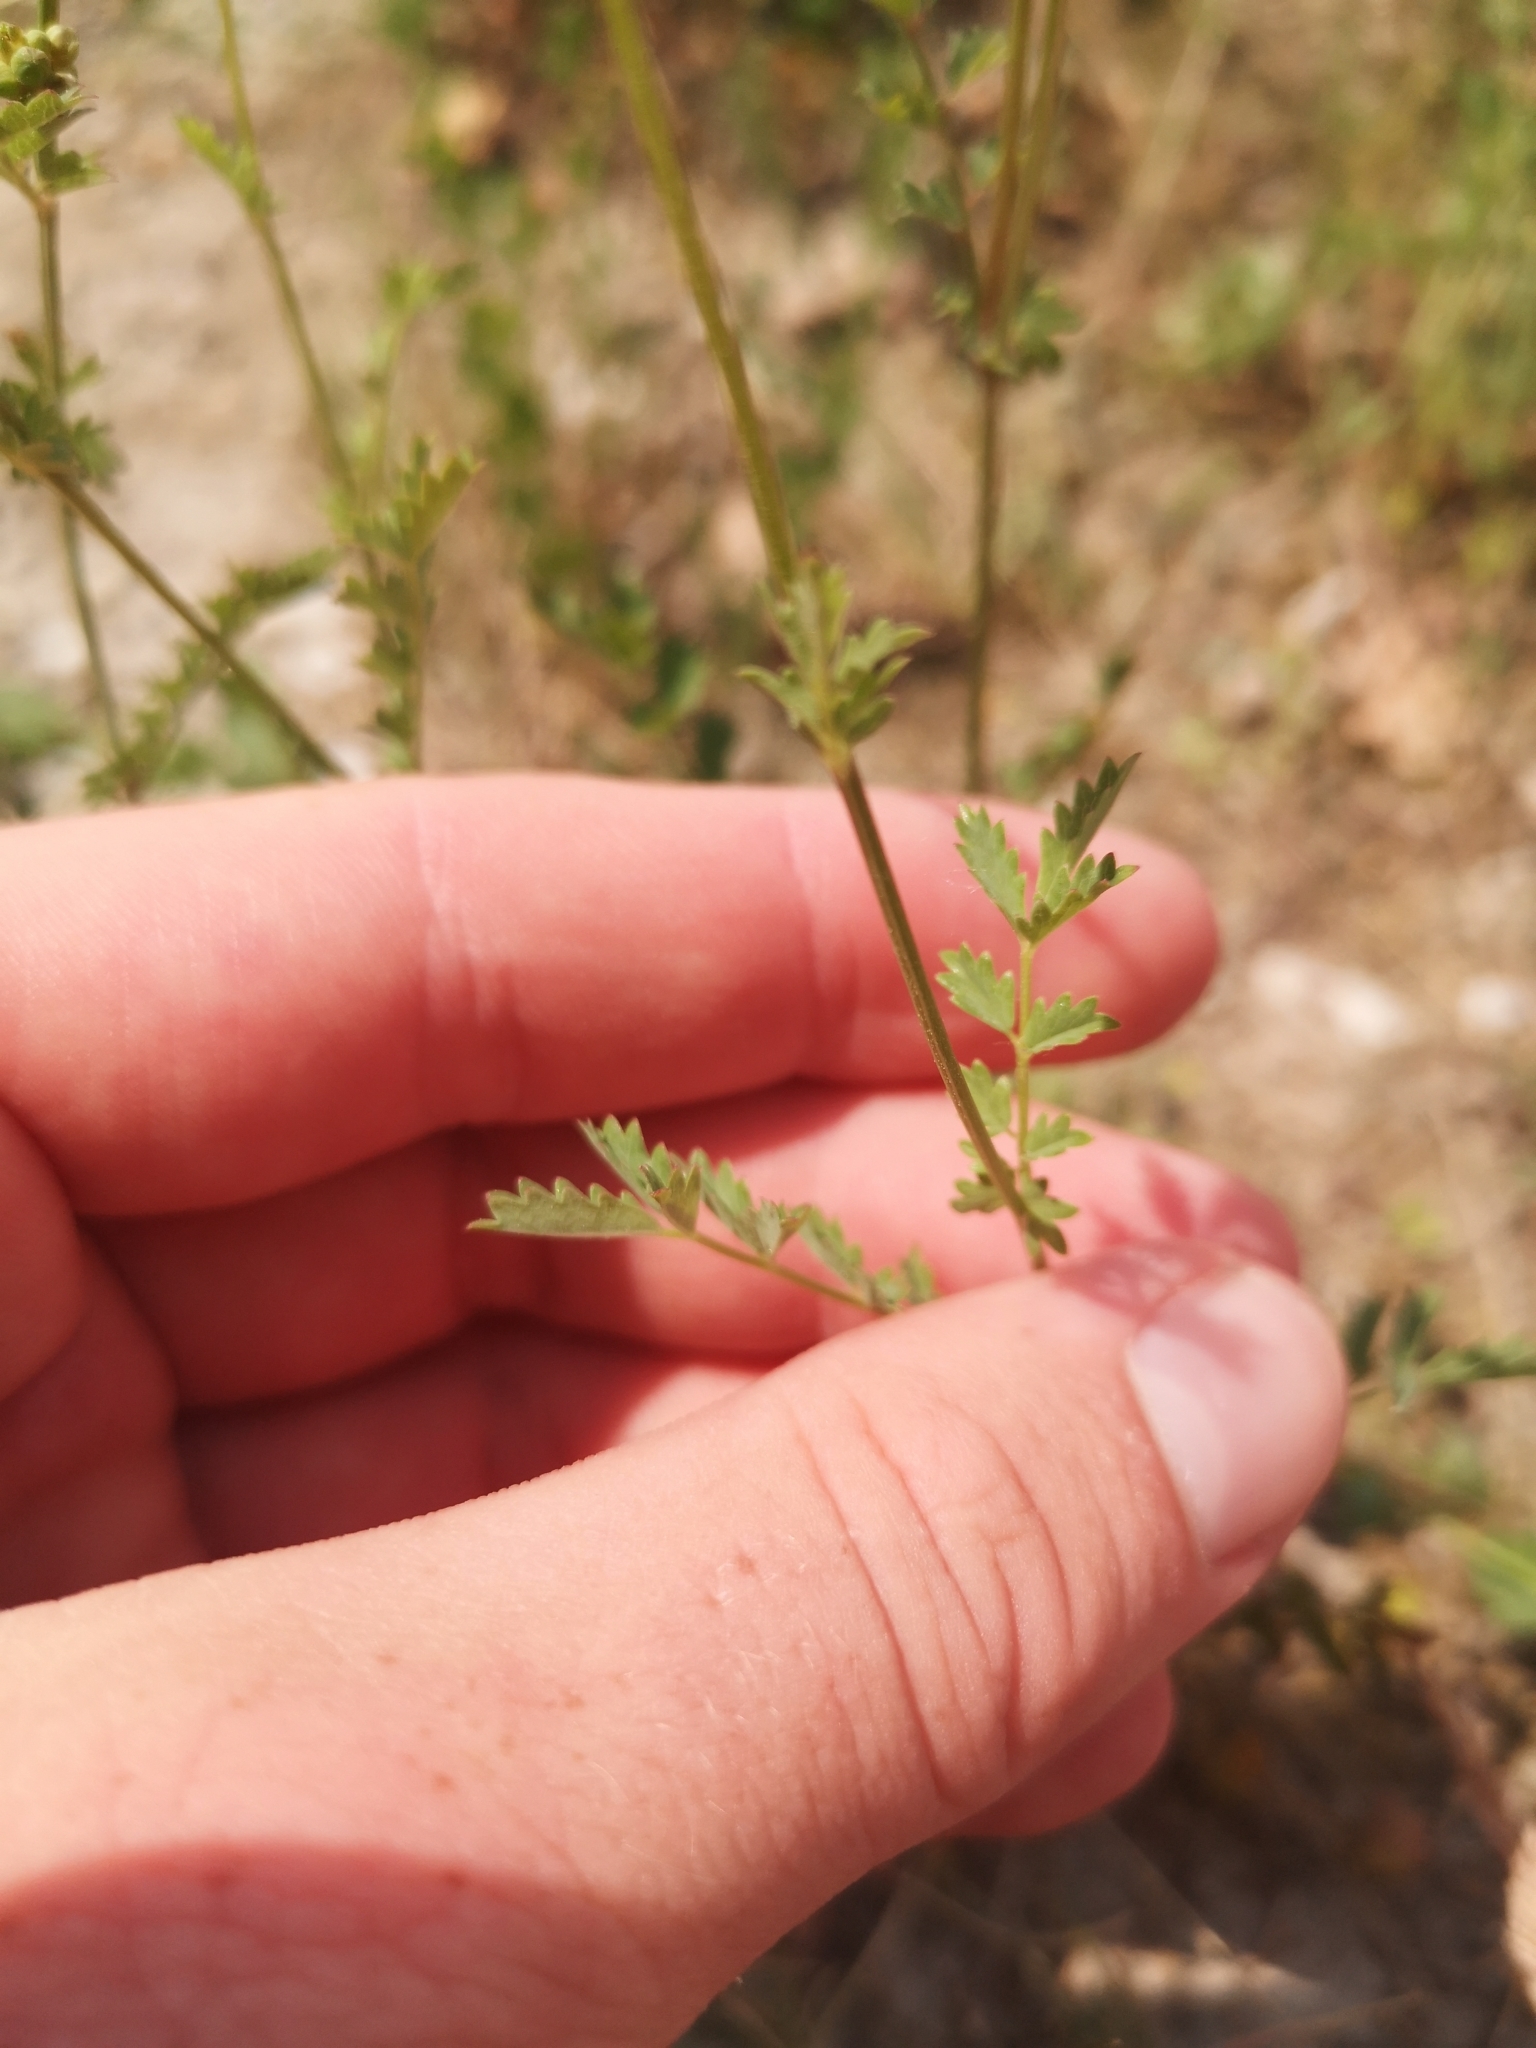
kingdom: Plantae
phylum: Tracheophyta
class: Magnoliopsida
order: Rosales
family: Rosaceae
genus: Poterium
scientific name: Poterium sanguisorba
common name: Salad burnet
